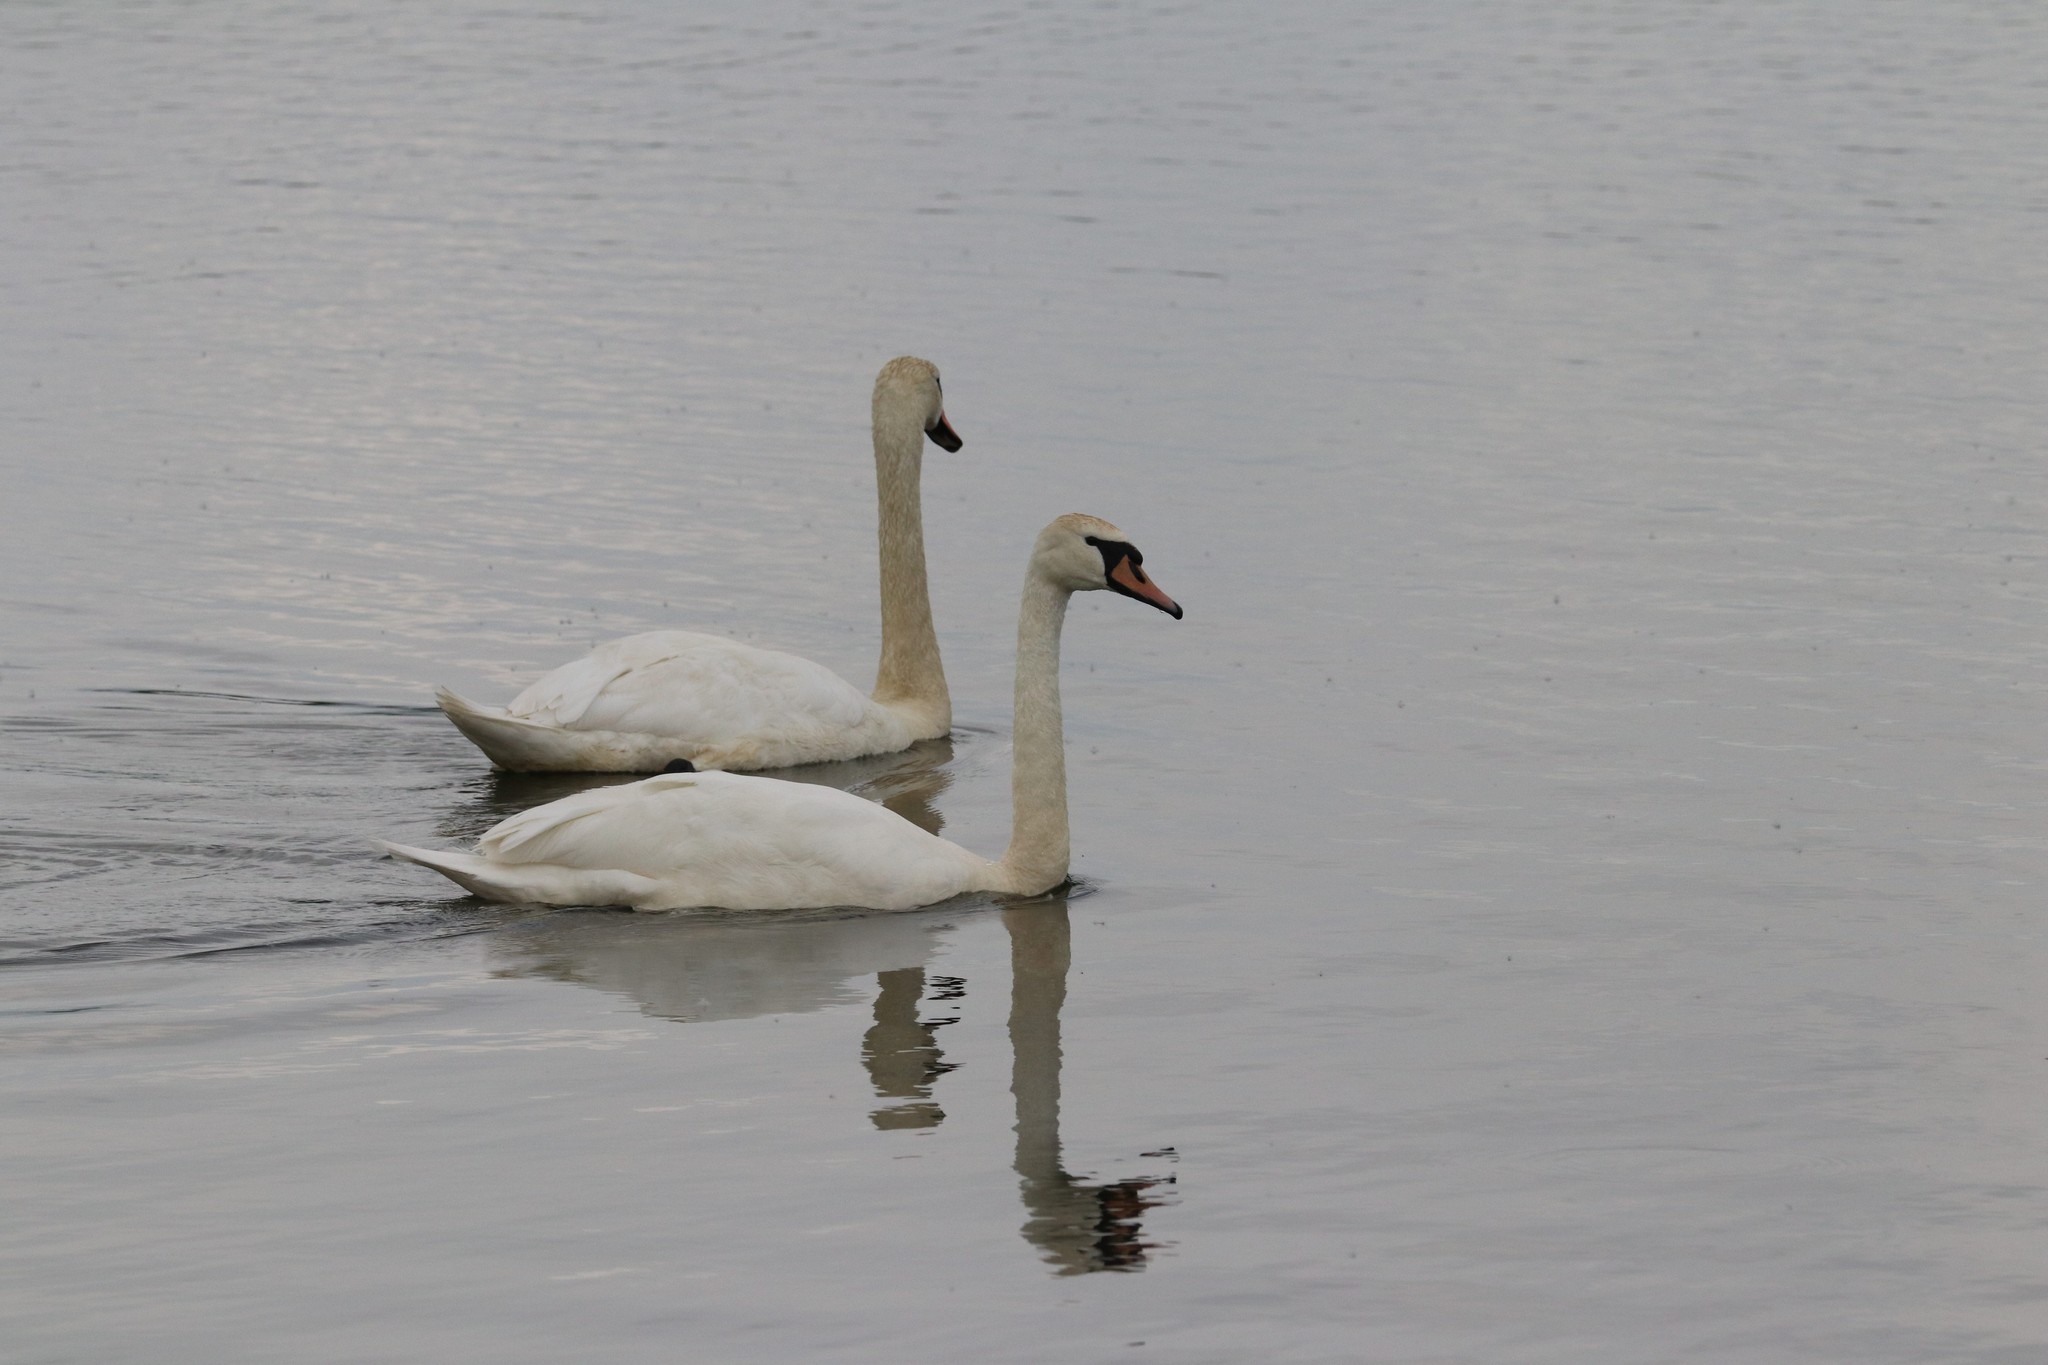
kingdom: Animalia
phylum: Chordata
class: Aves
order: Anseriformes
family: Anatidae
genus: Cygnus
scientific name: Cygnus olor
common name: Mute swan
